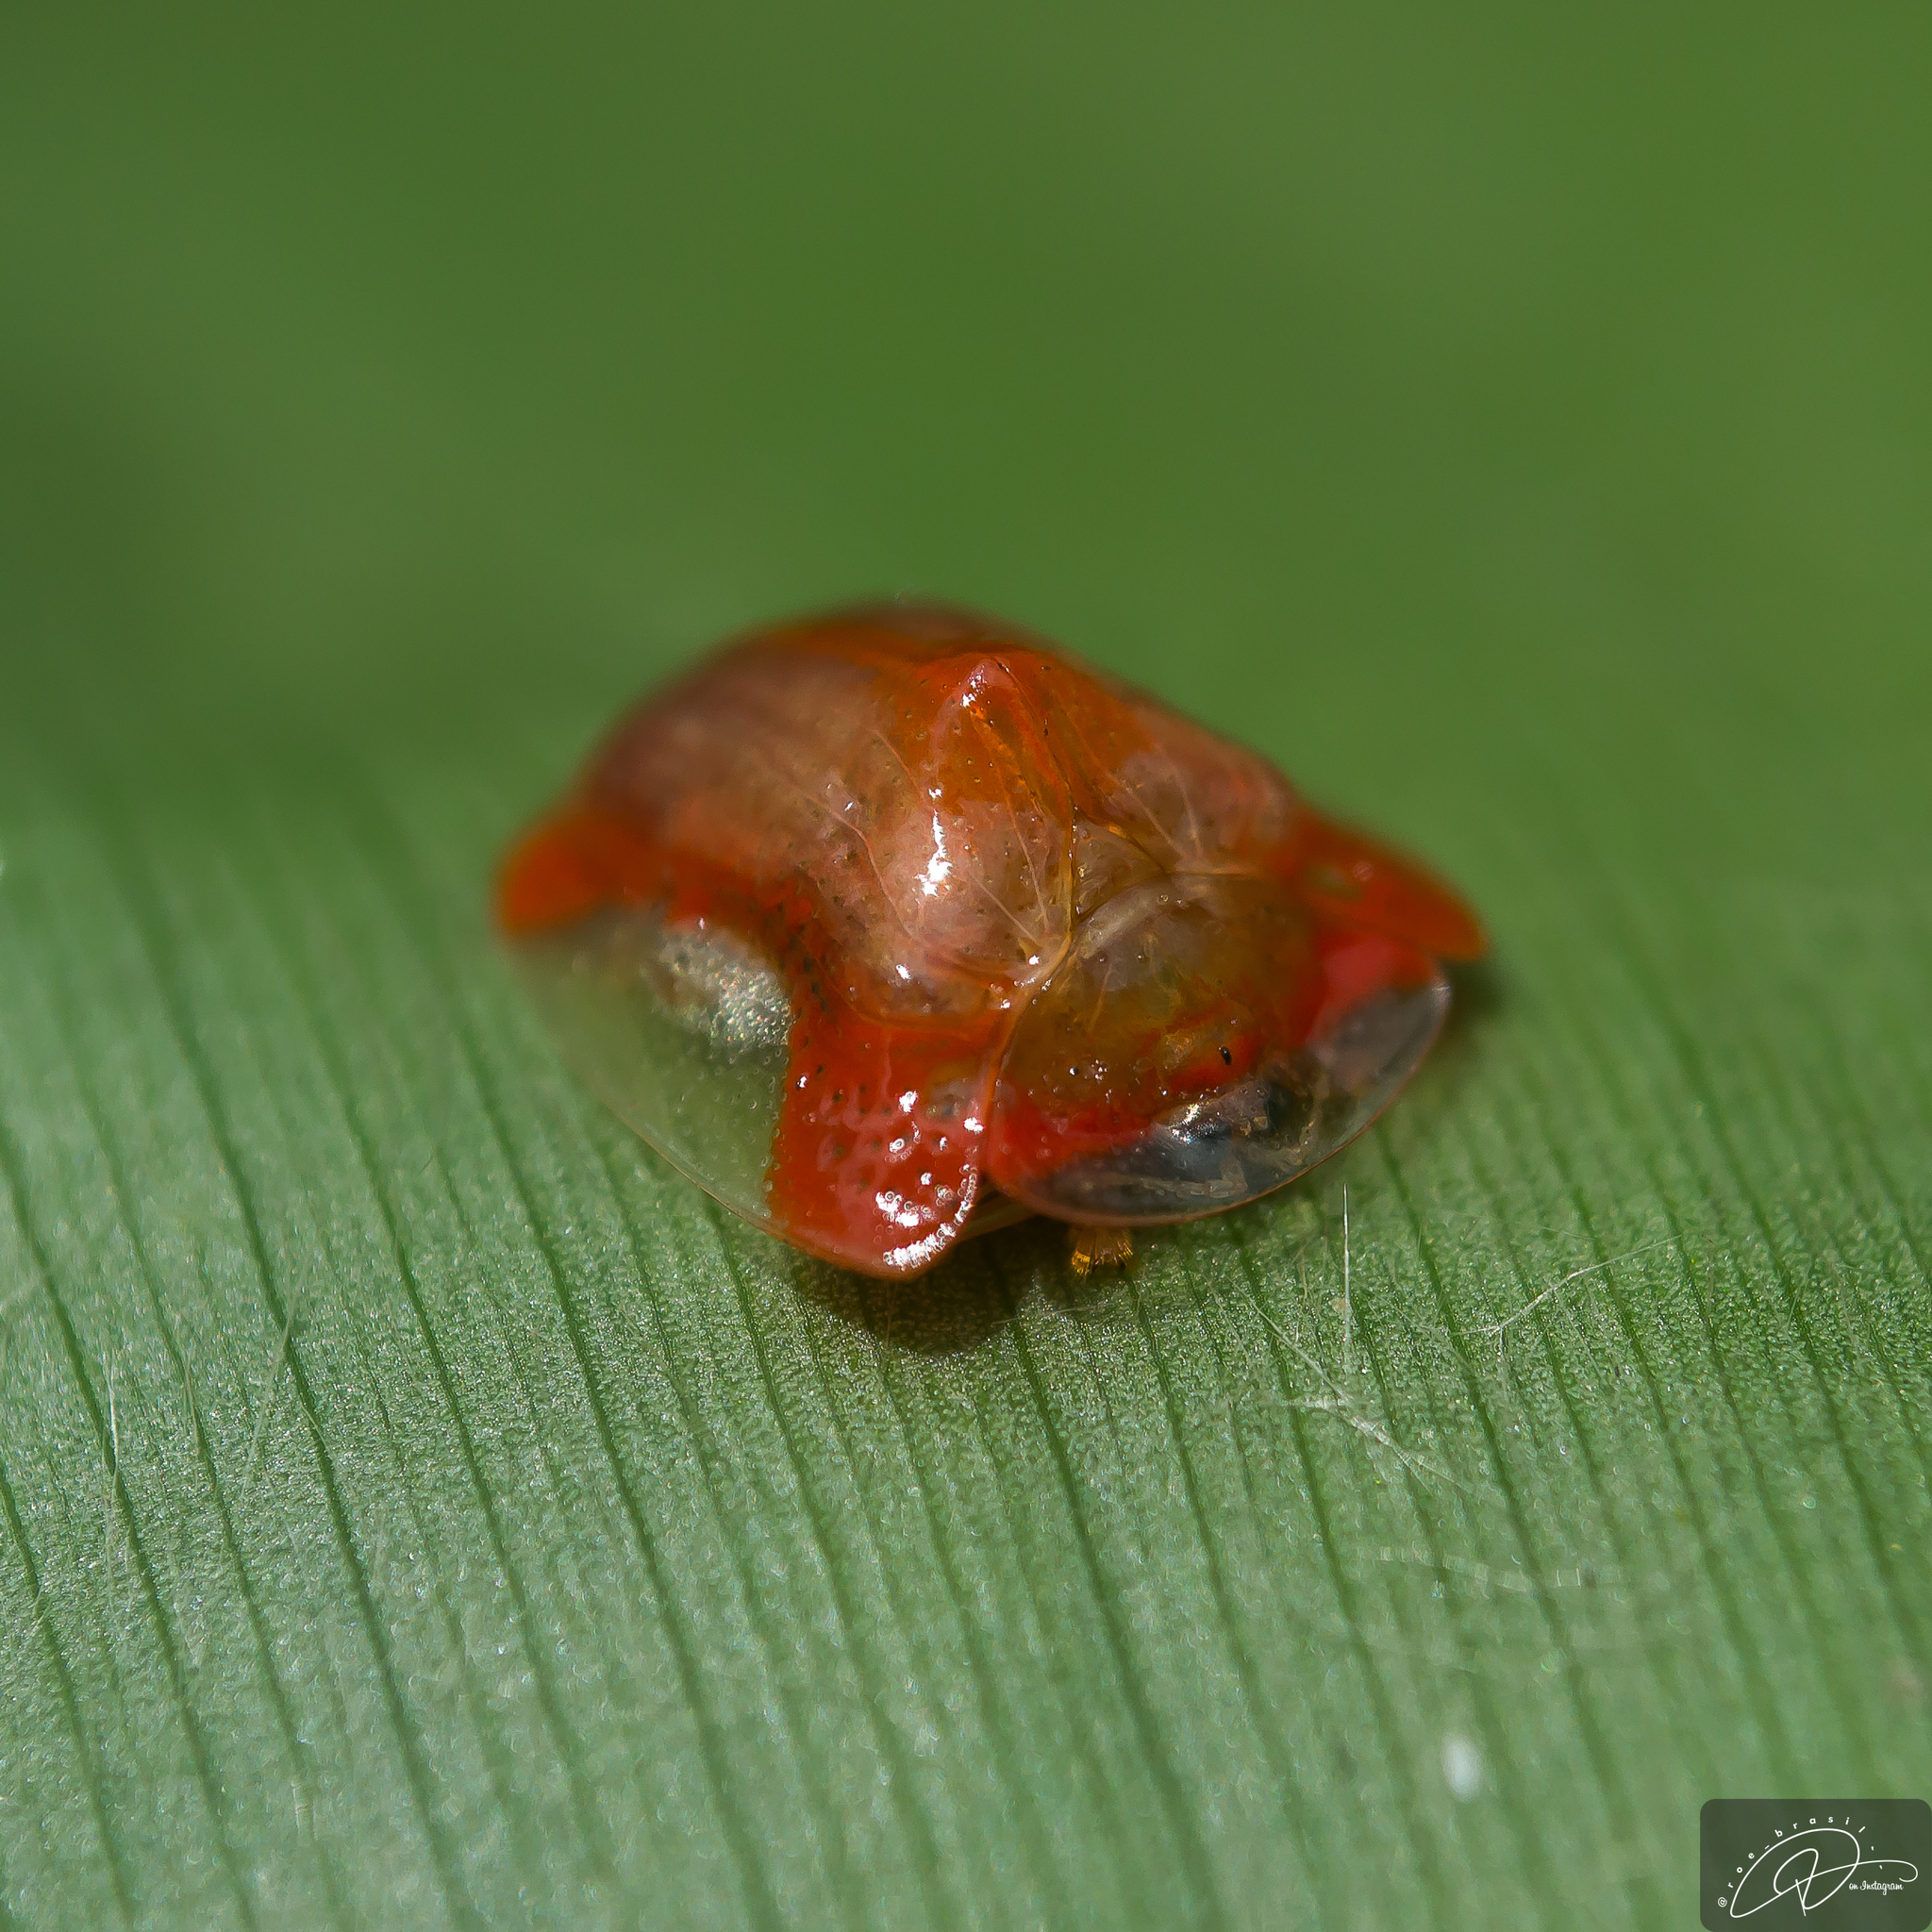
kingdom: Animalia
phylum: Arthropoda
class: Insecta
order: Coleoptera
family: Chrysomelidae
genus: Charidotella
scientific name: Charidotella rubicunda
